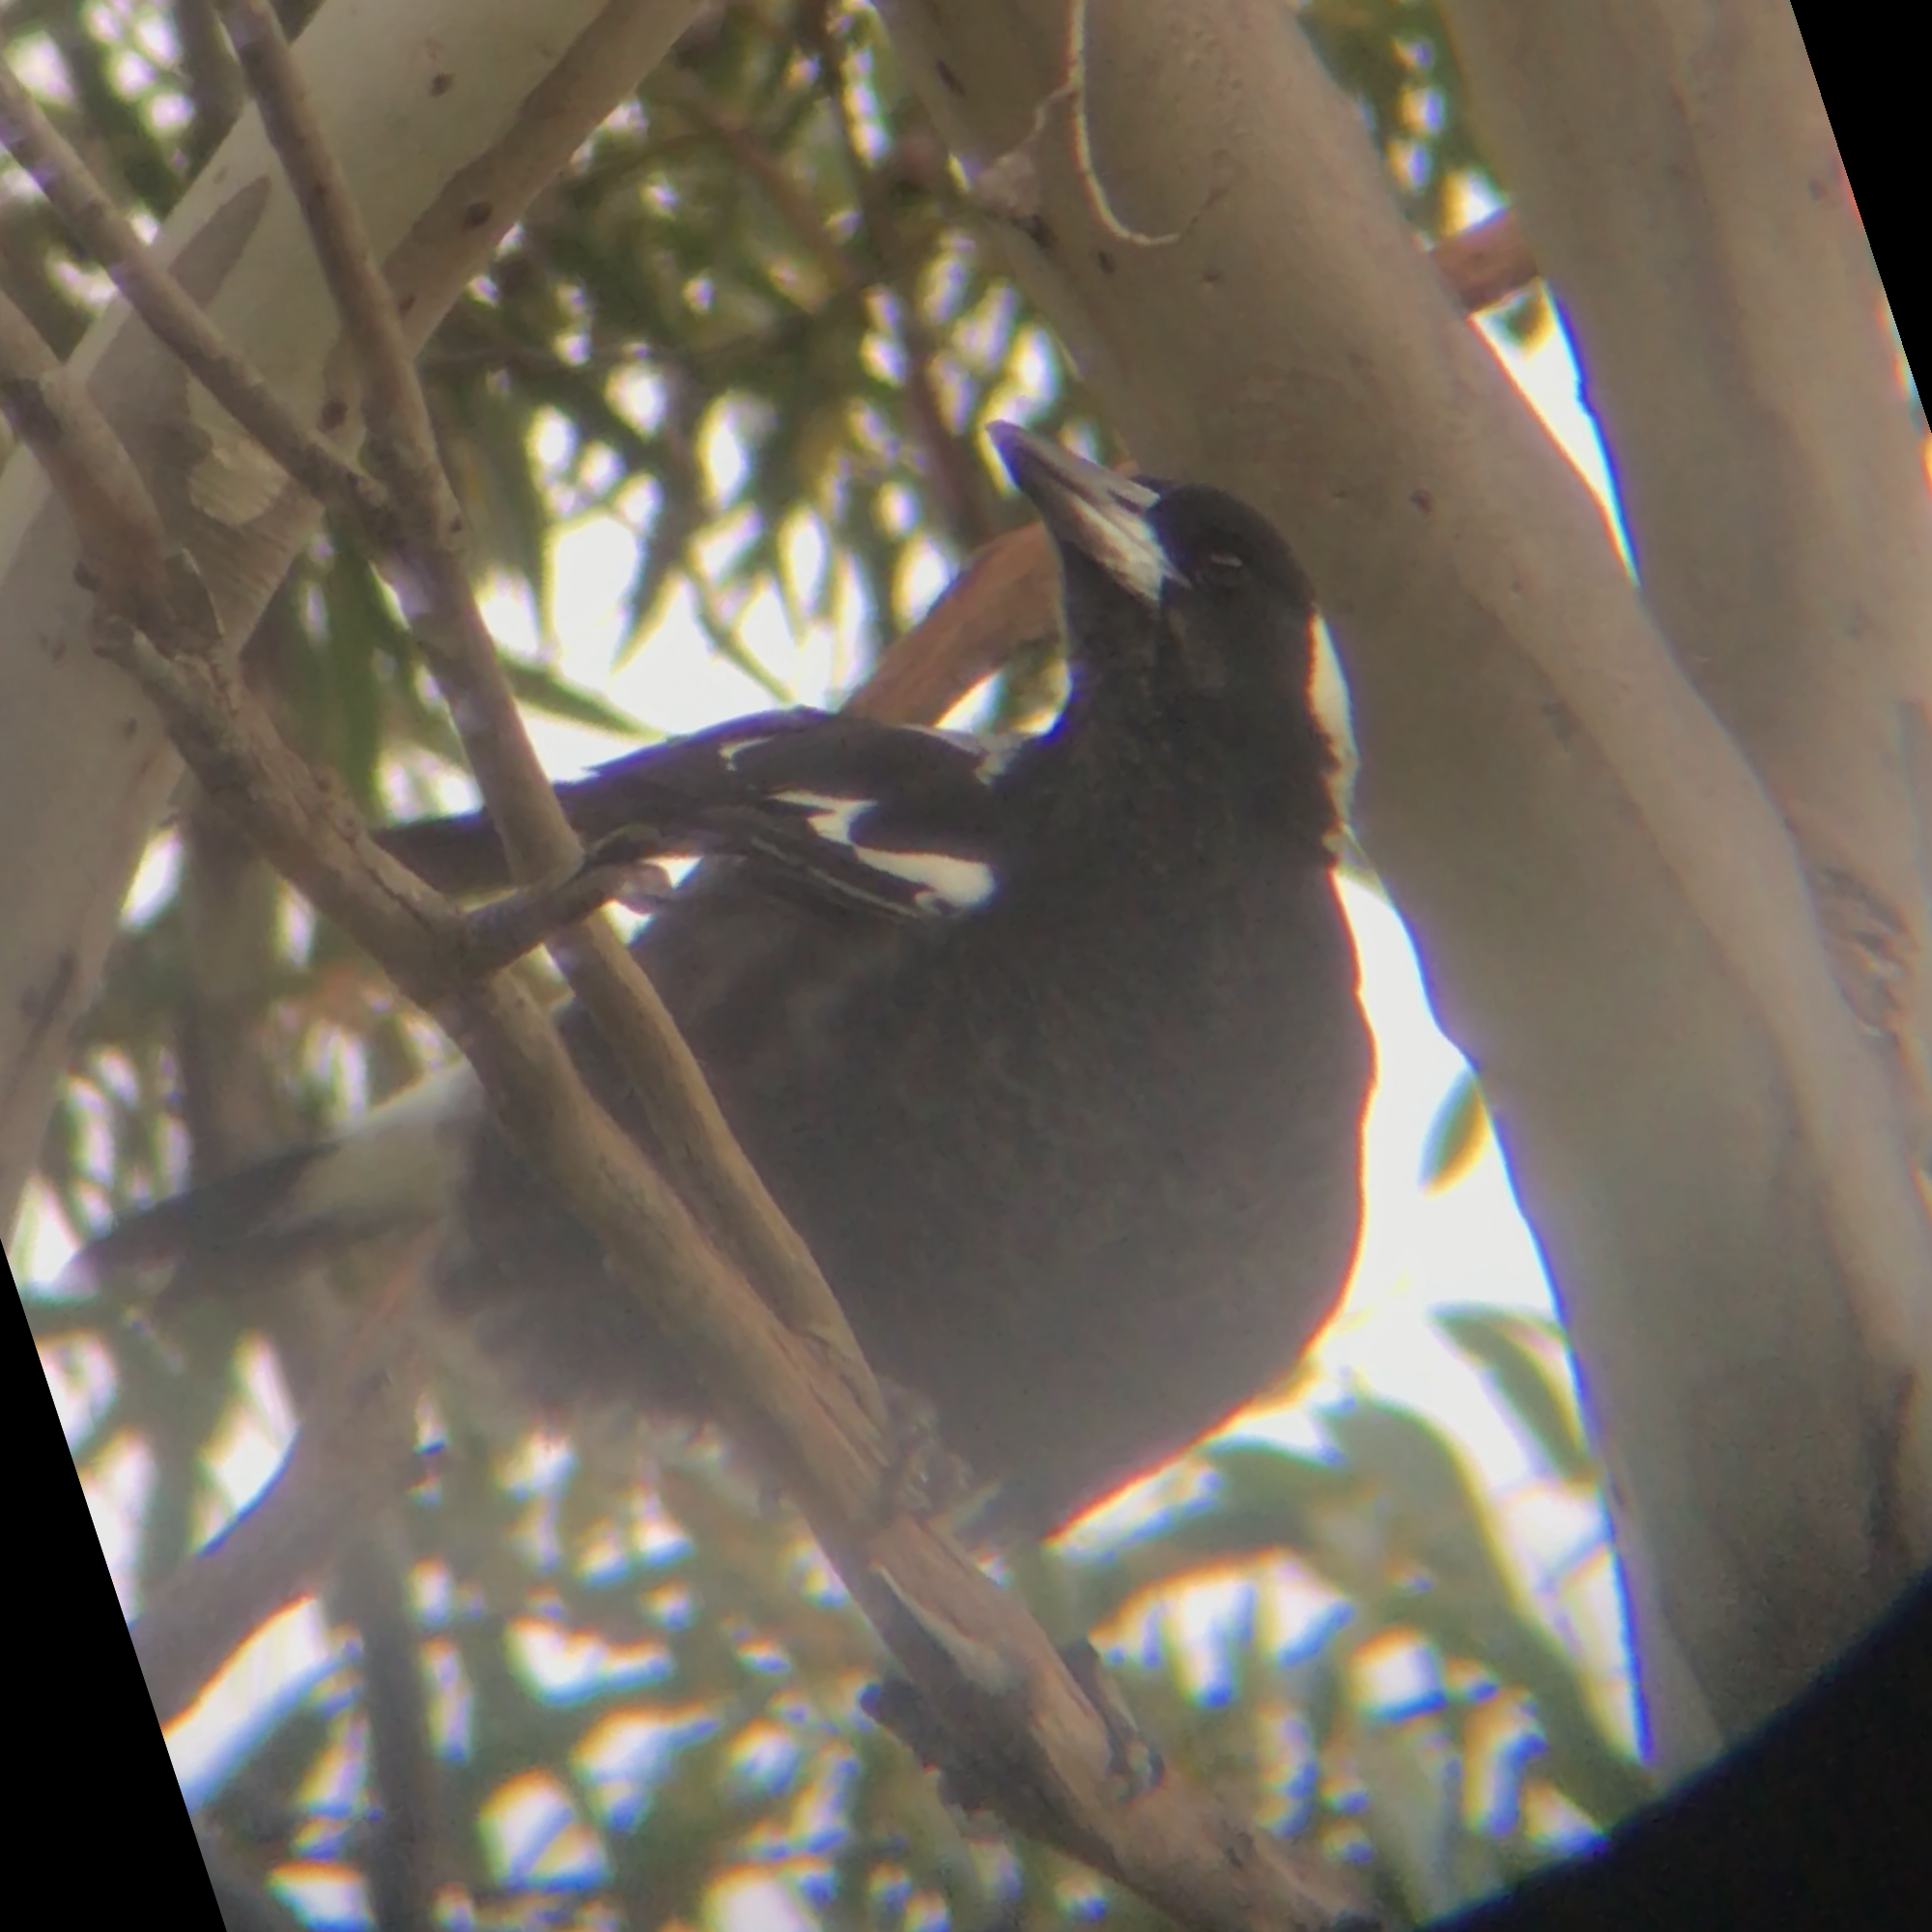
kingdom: Animalia
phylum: Chordata
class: Aves
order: Passeriformes
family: Cracticidae
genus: Gymnorhina
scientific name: Gymnorhina tibicen
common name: Australian magpie
